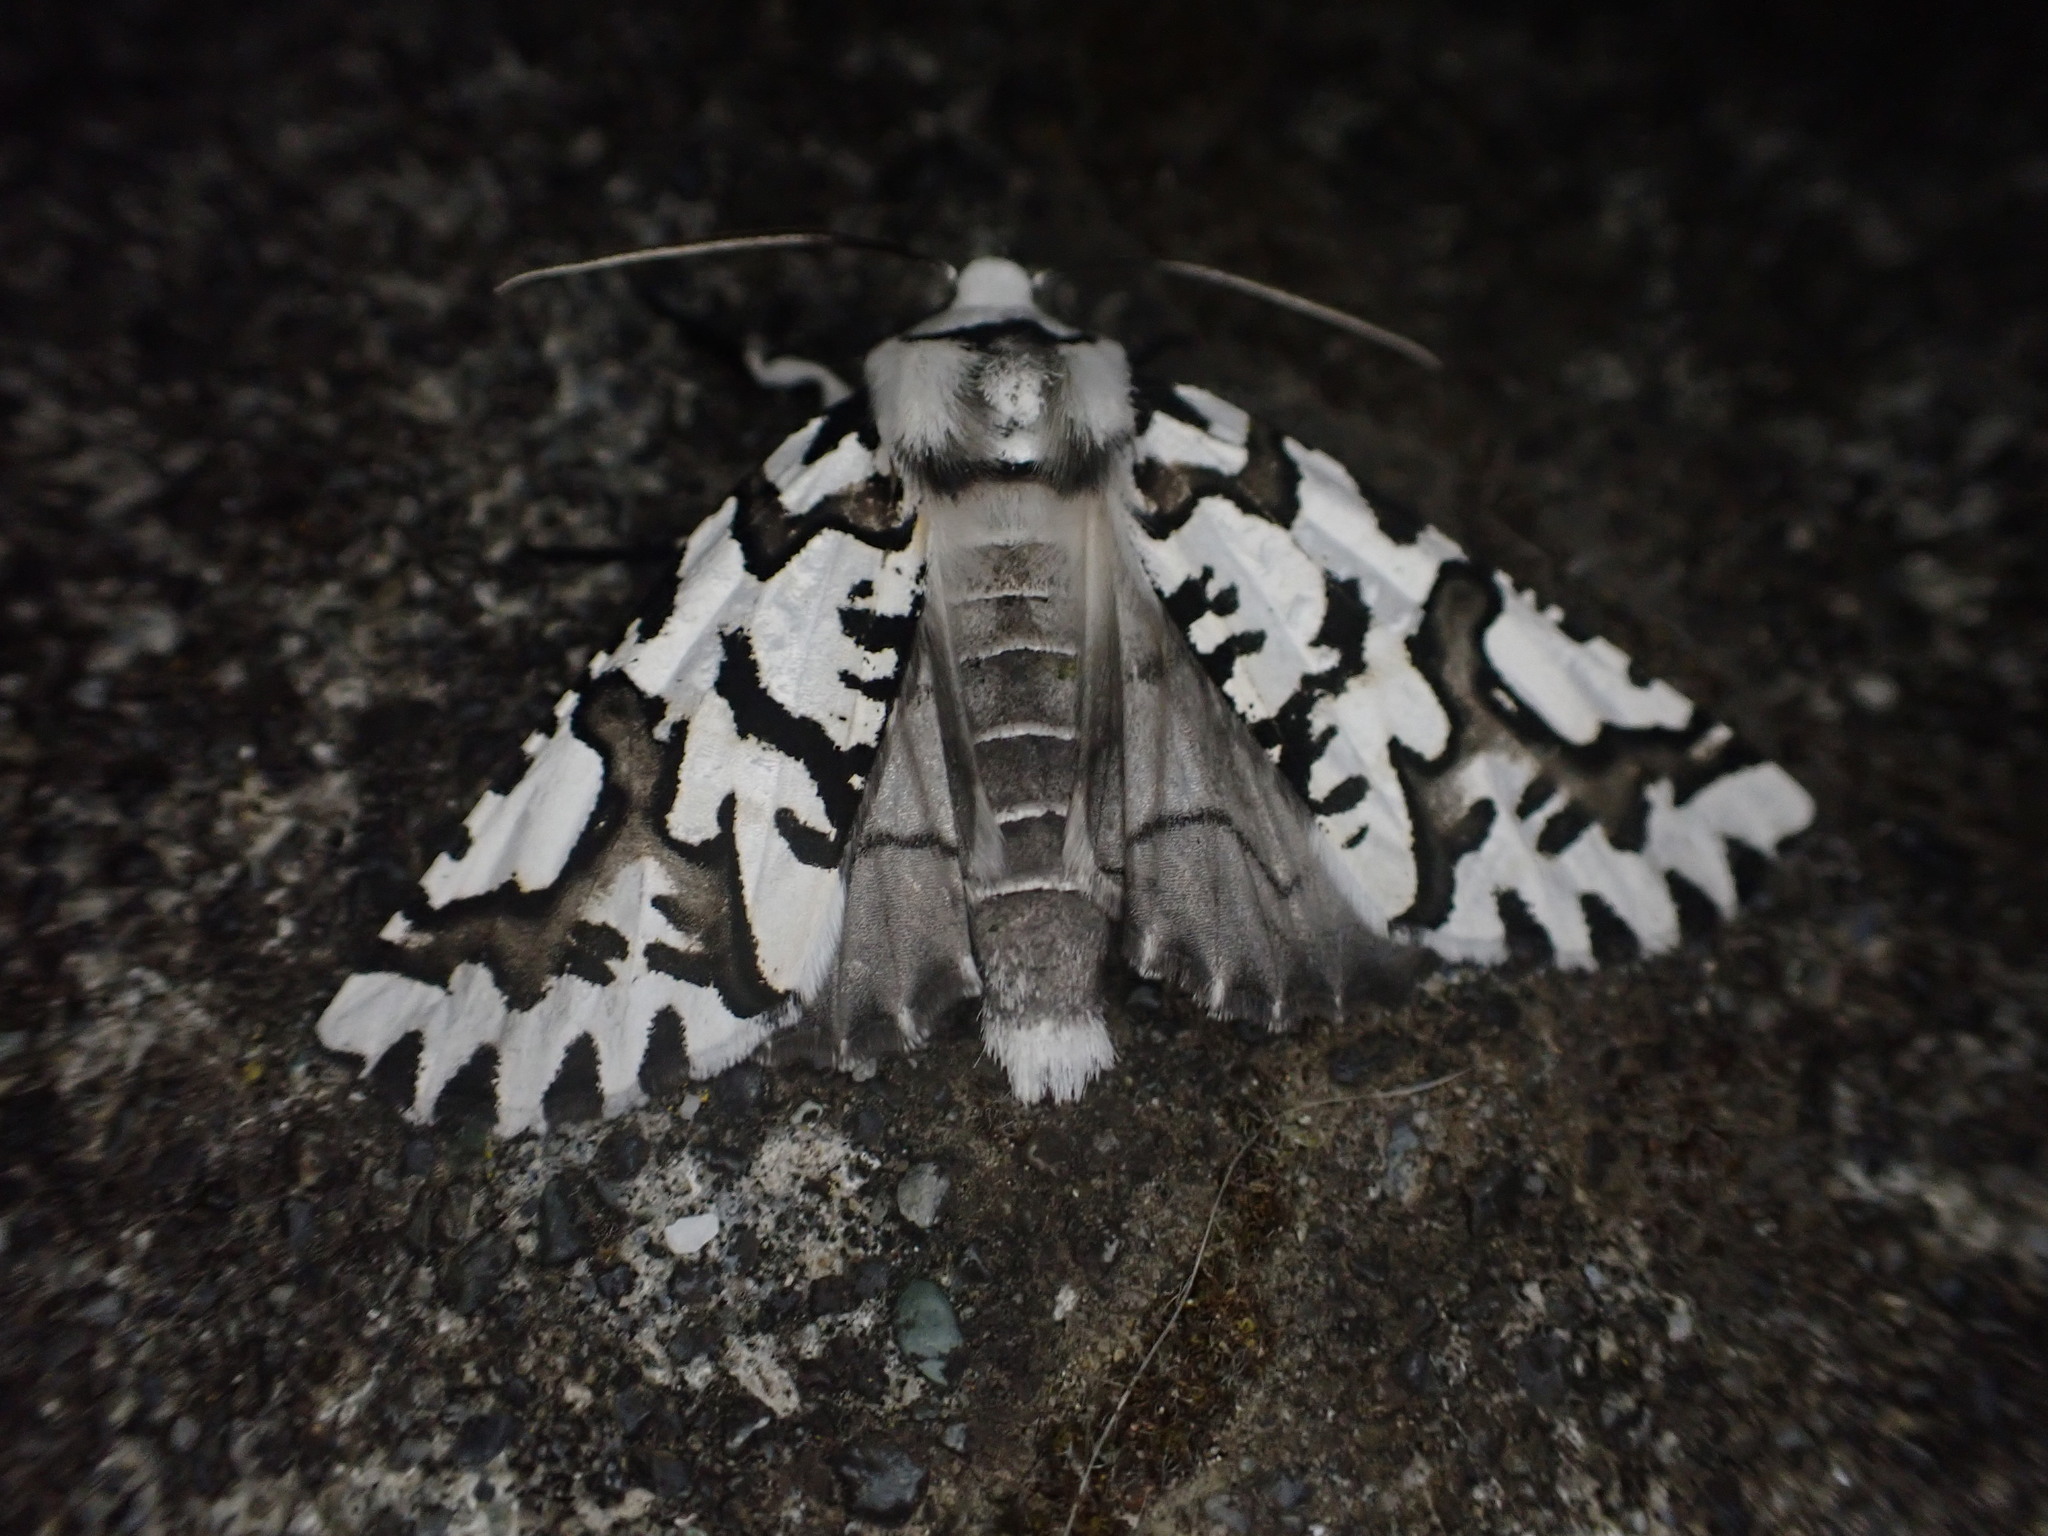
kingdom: Animalia
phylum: Arthropoda
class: Insecta
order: Lepidoptera
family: Geometridae
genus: Declana
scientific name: Declana
